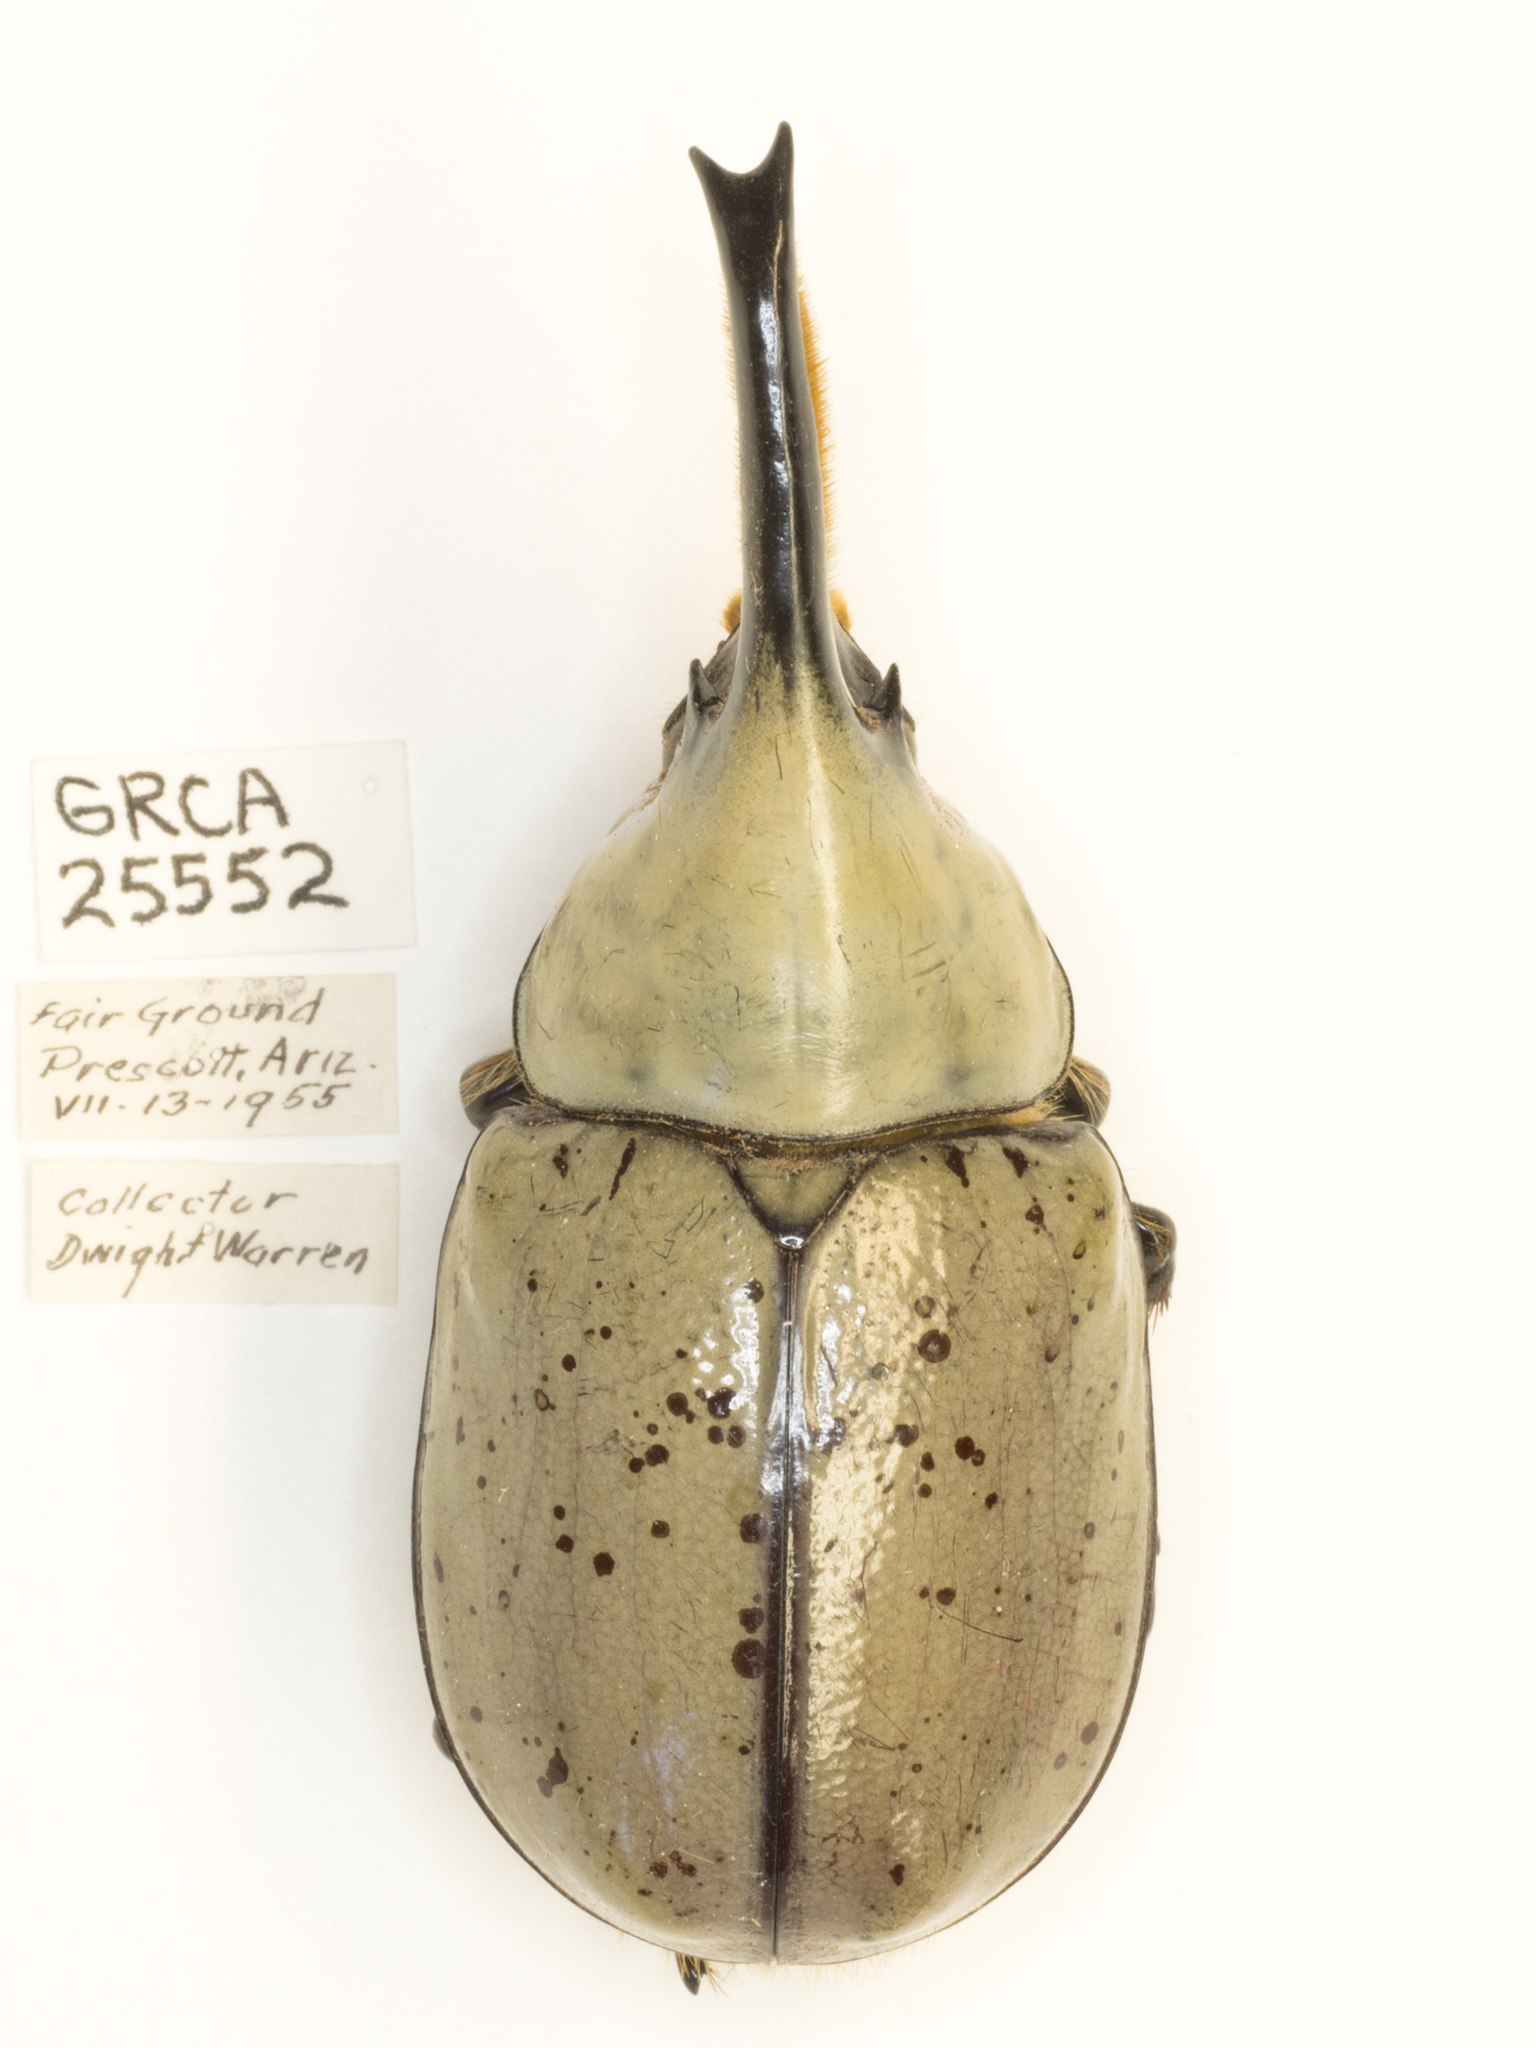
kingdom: Animalia
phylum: Arthropoda
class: Insecta
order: Coleoptera
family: Scarabaeidae
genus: Dynastes
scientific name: Dynastes grantii
